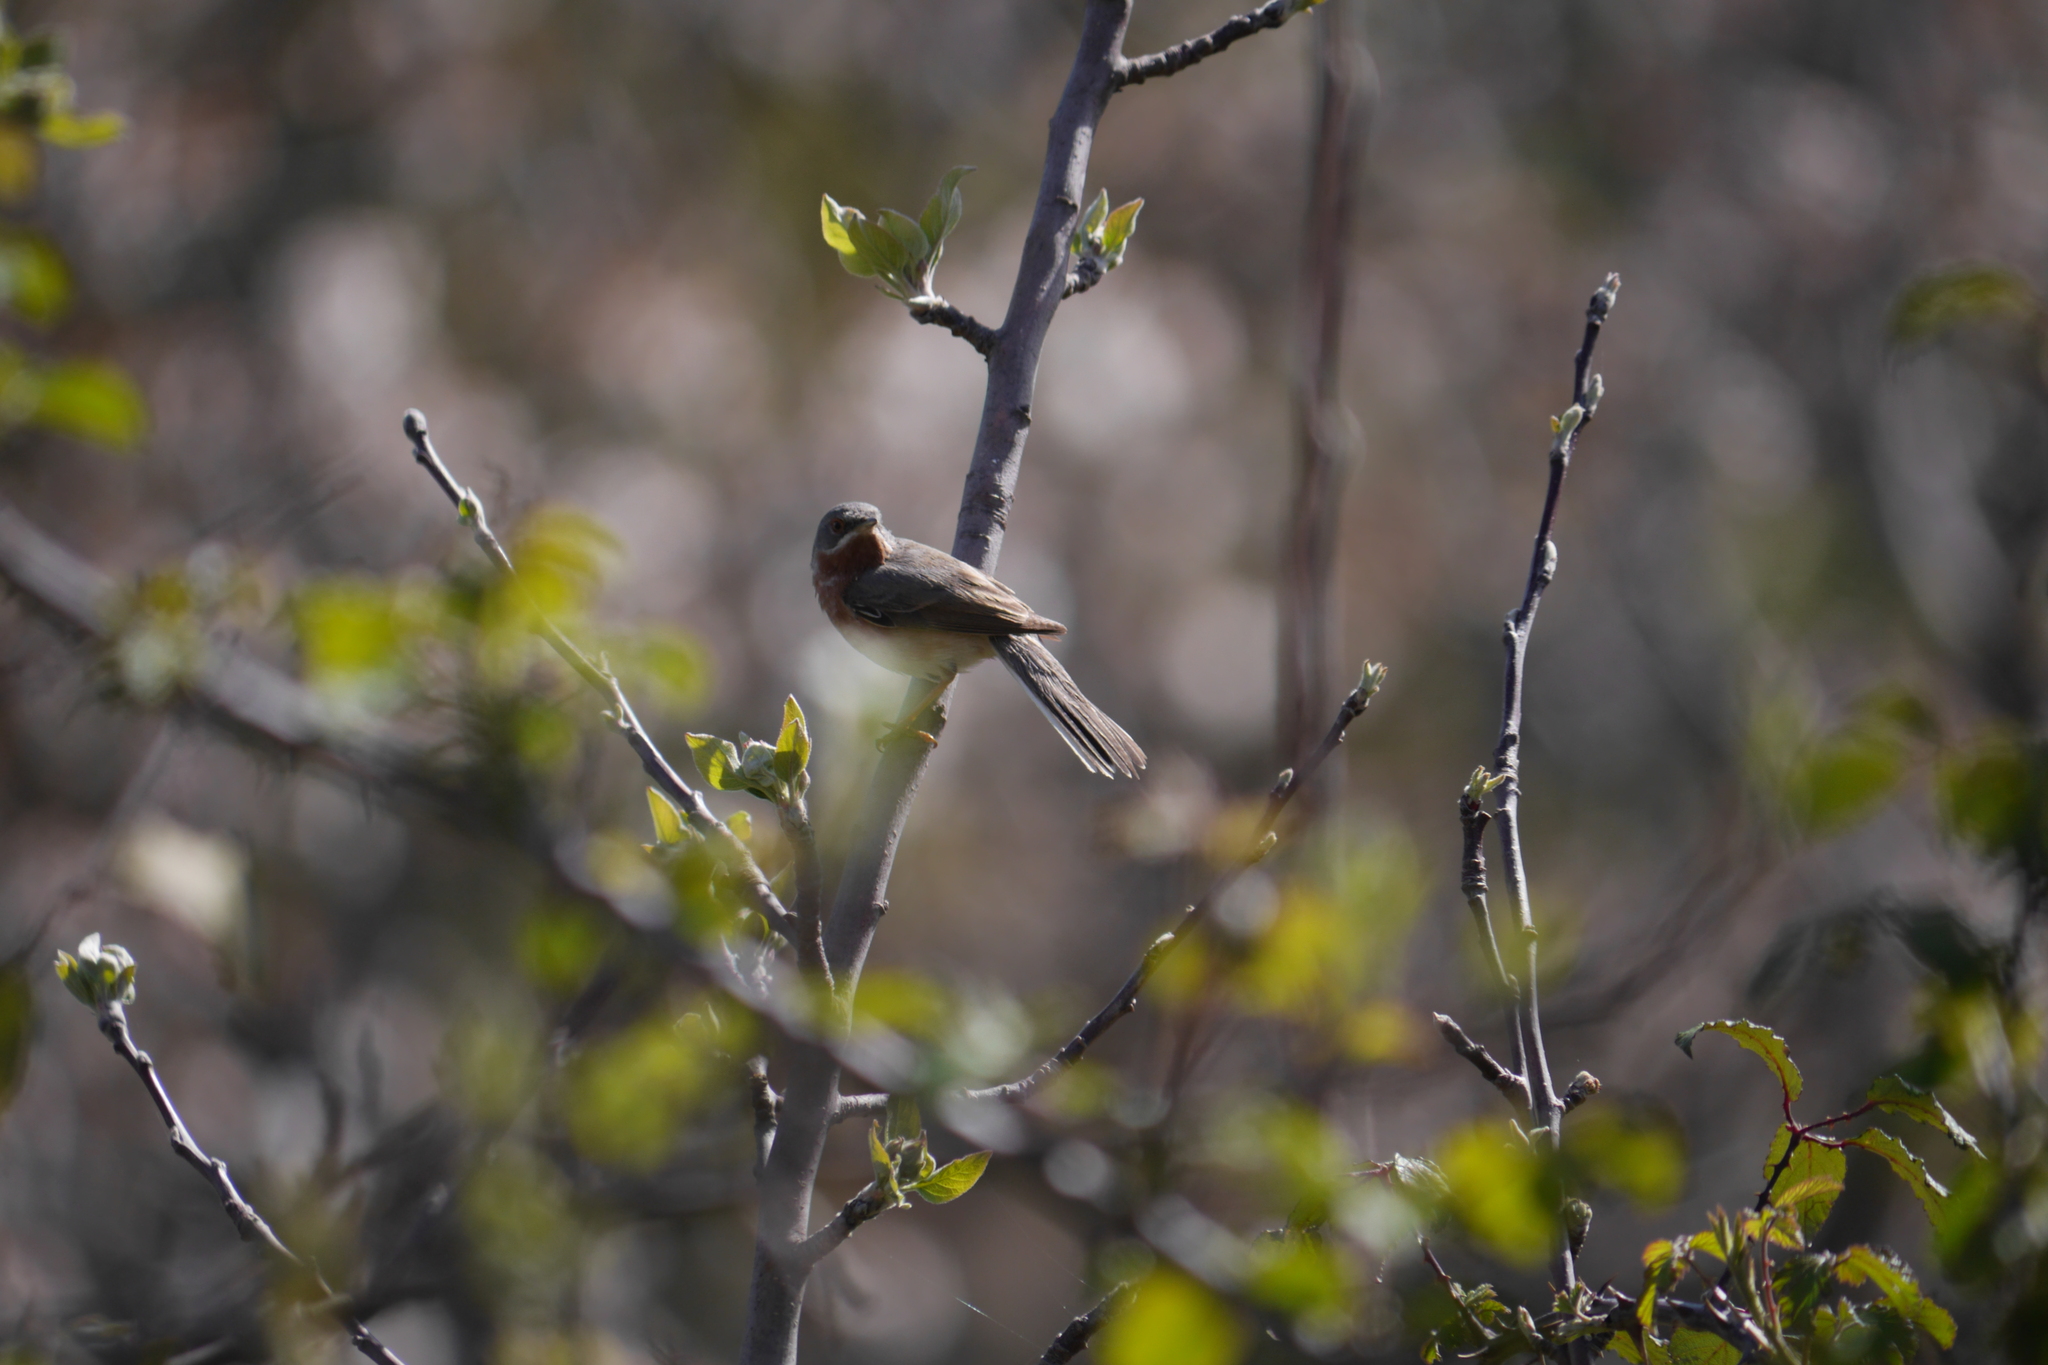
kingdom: Animalia
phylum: Chordata
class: Aves
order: Passeriformes
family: Sylviidae
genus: Curruca
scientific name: Curruca cantillans
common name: Subalpine warbler
